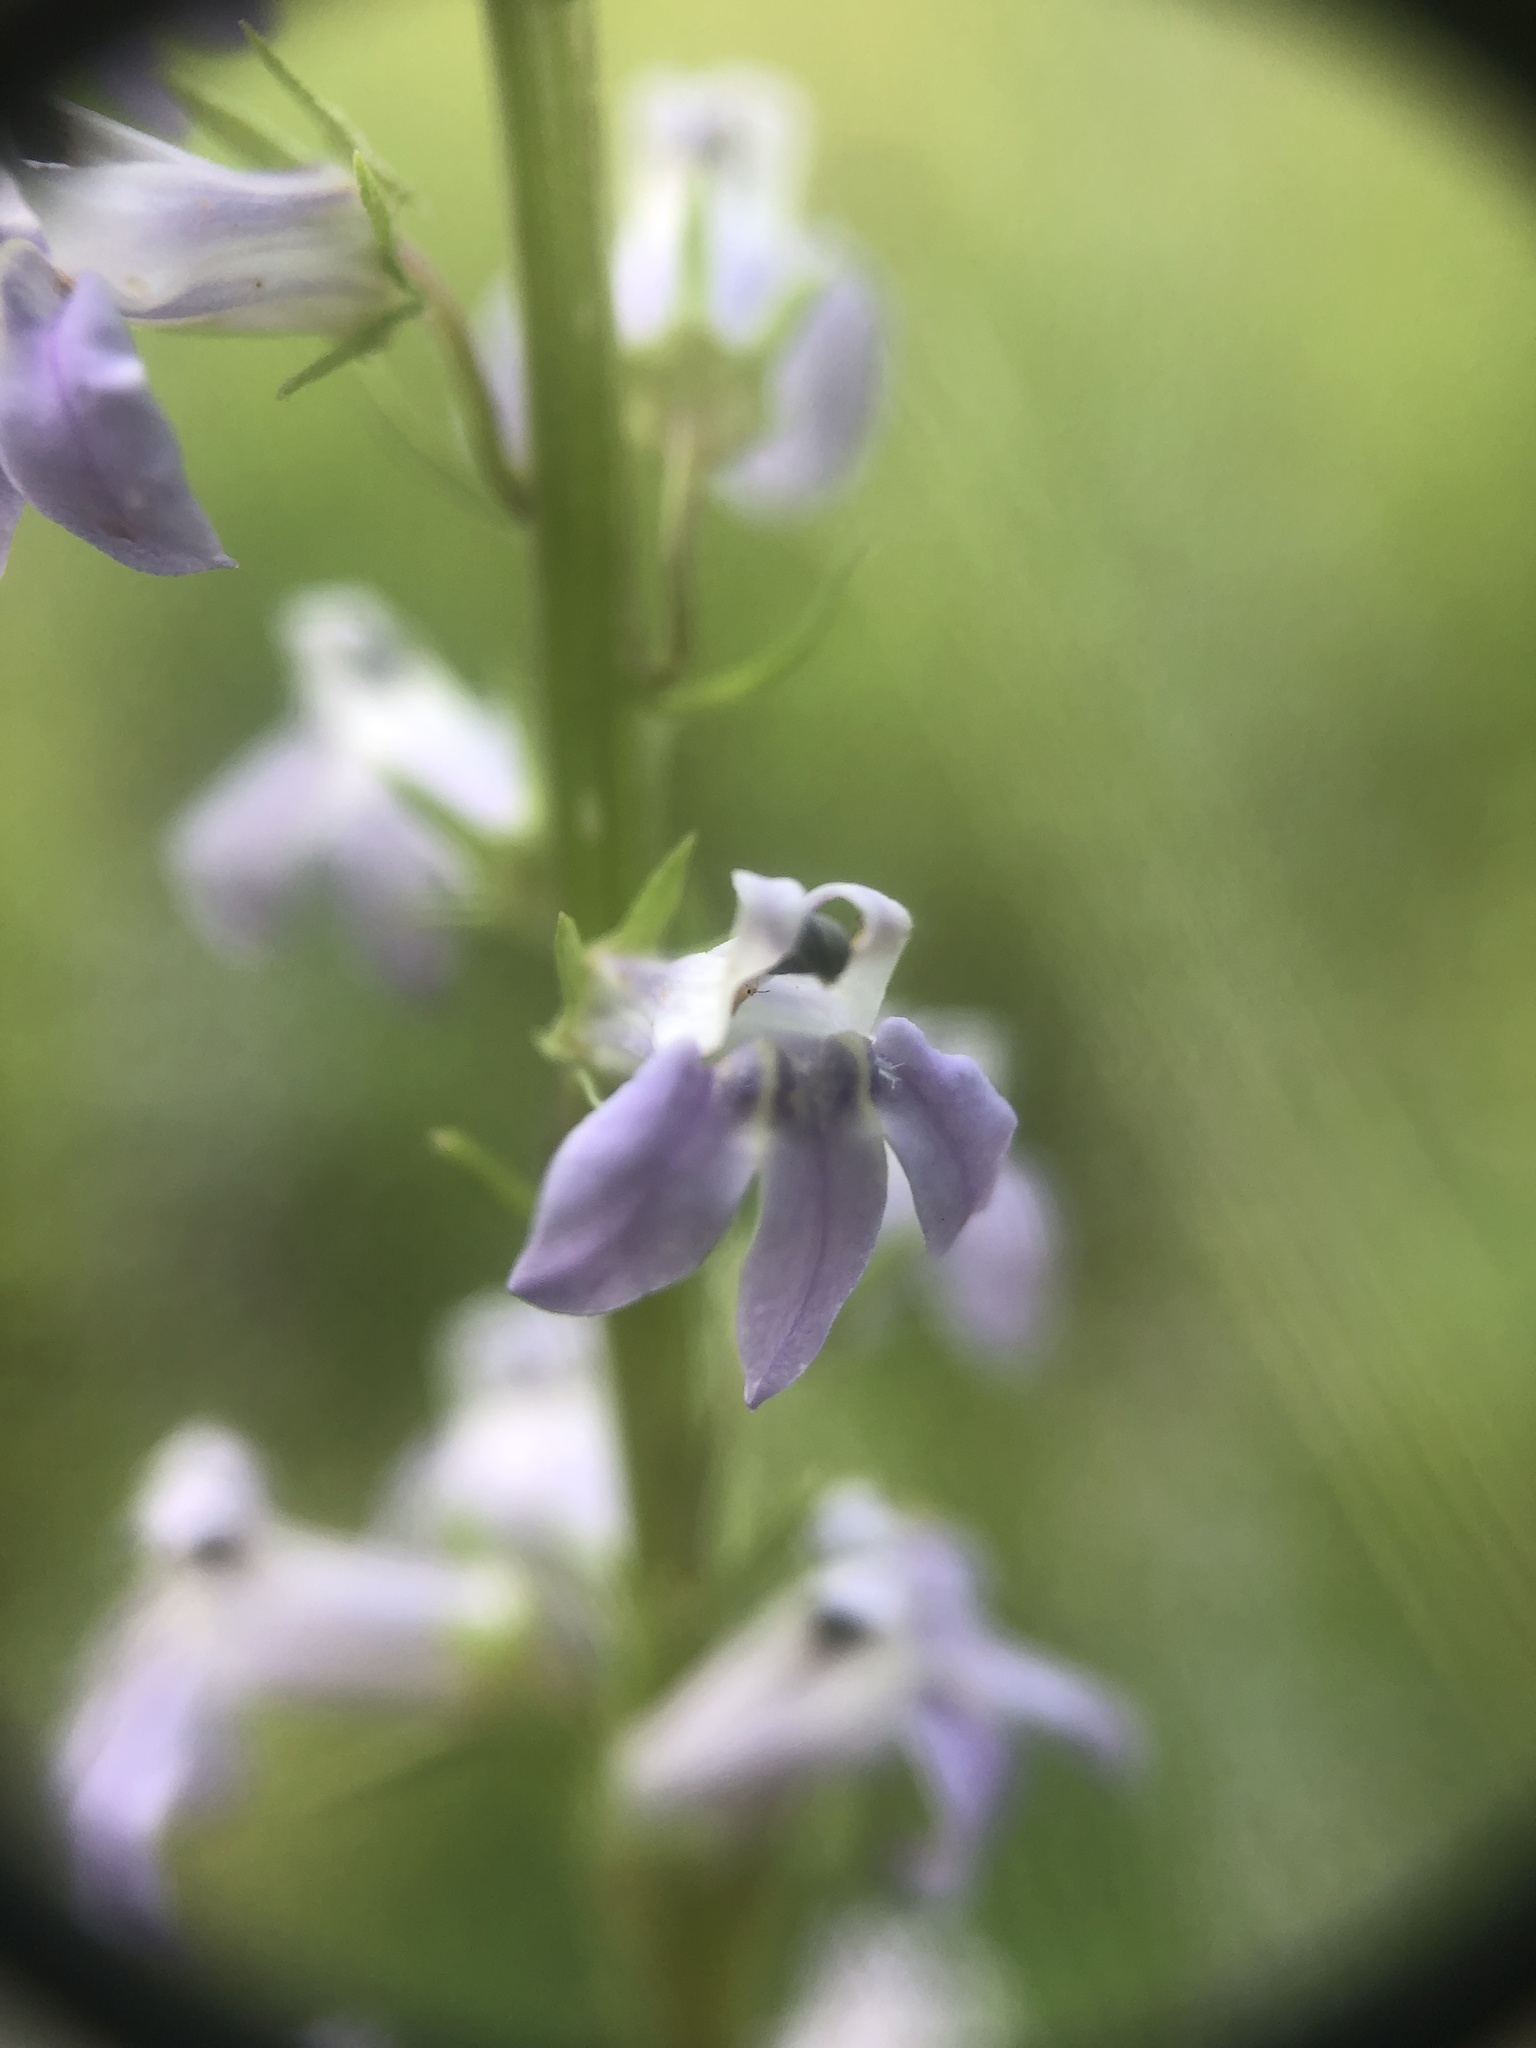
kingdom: Plantae
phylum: Tracheophyta
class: Magnoliopsida
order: Asterales
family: Campanulaceae
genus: Lobelia
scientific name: Lobelia spicata
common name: Pale-spike lobelia
